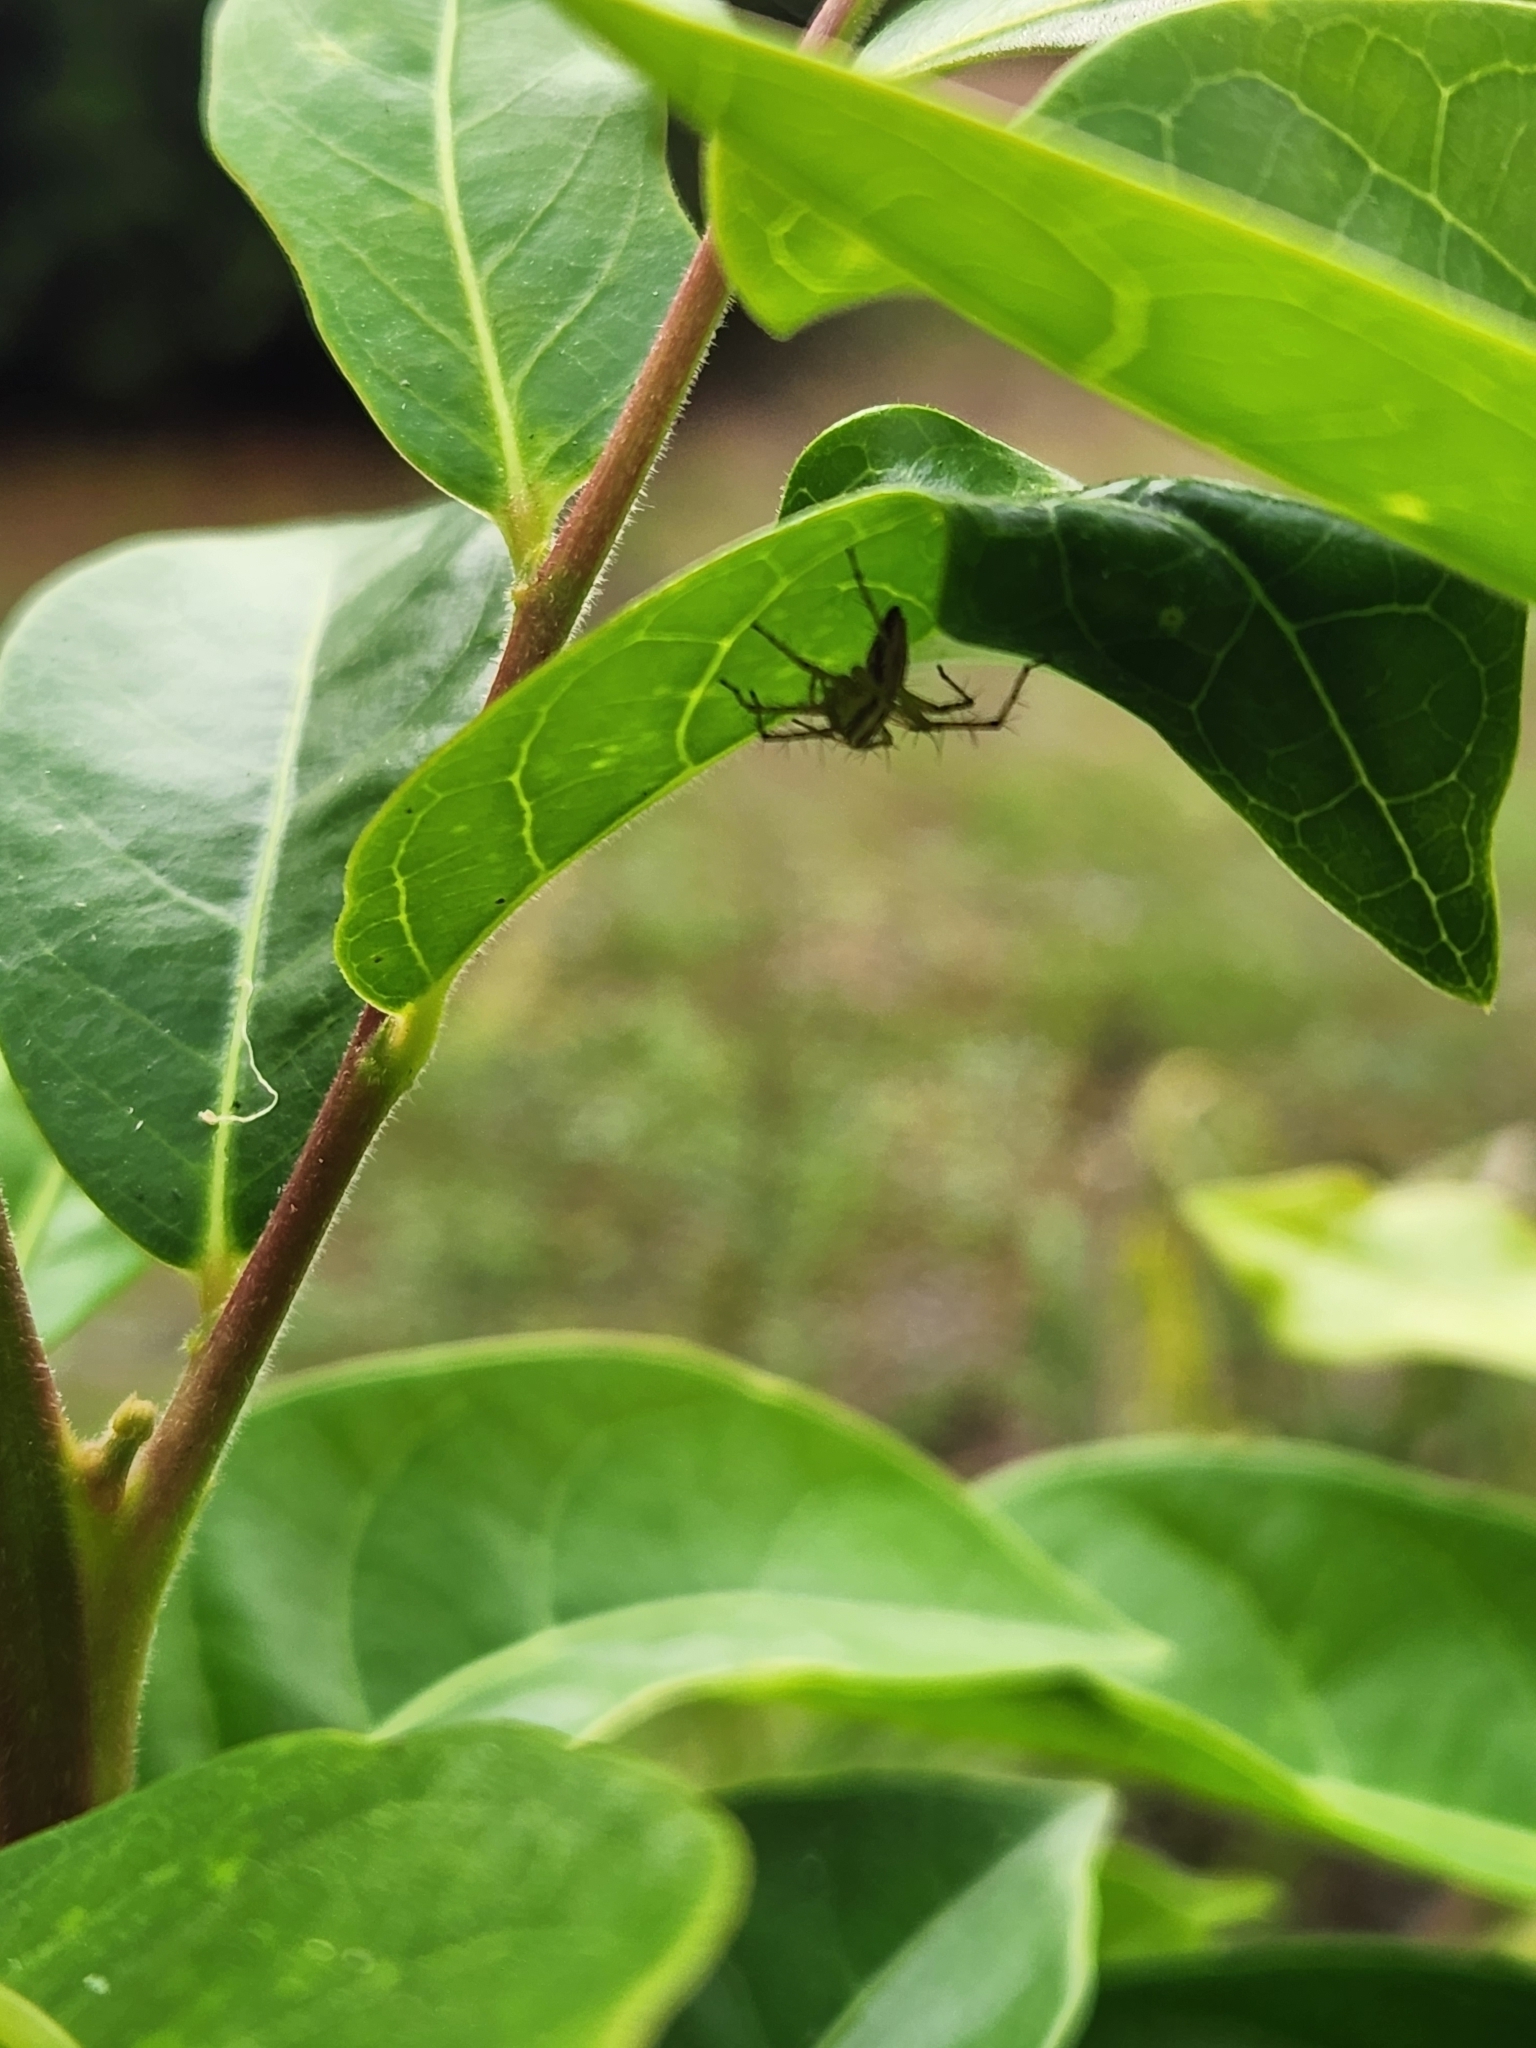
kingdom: Animalia
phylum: Arthropoda
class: Arachnida
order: Araneae
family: Oxyopidae
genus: Oxyopes
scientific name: Oxyopes gracilipes
